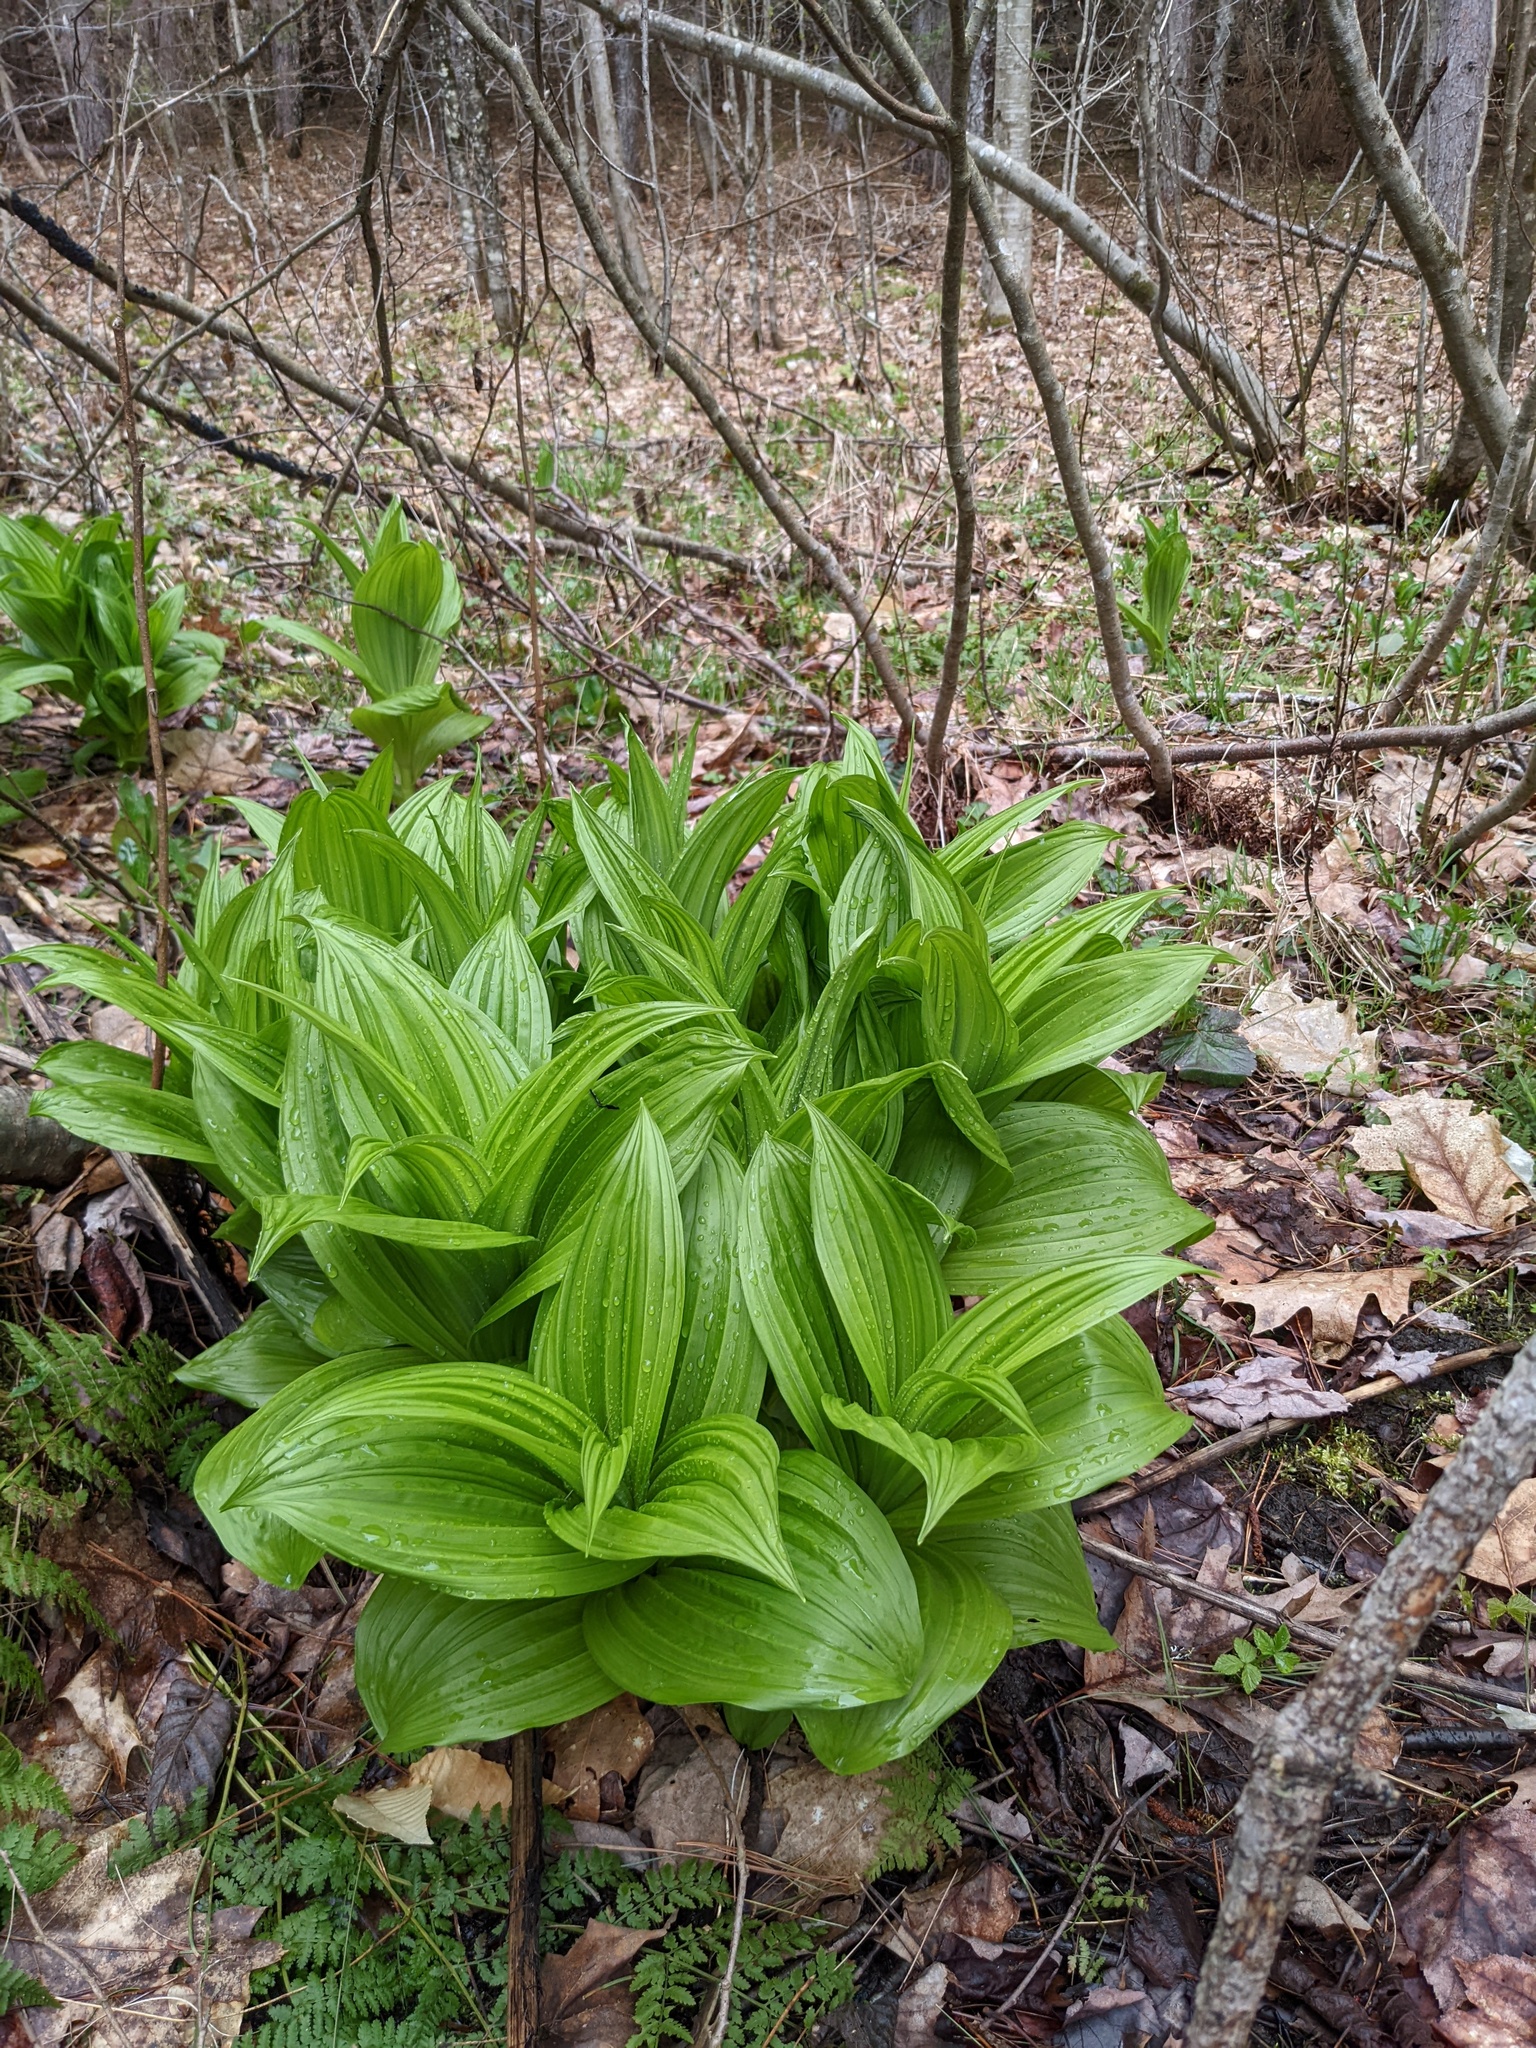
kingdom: Plantae
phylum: Tracheophyta
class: Liliopsida
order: Liliales
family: Melanthiaceae
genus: Veratrum
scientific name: Veratrum viride
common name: American false hellebore
